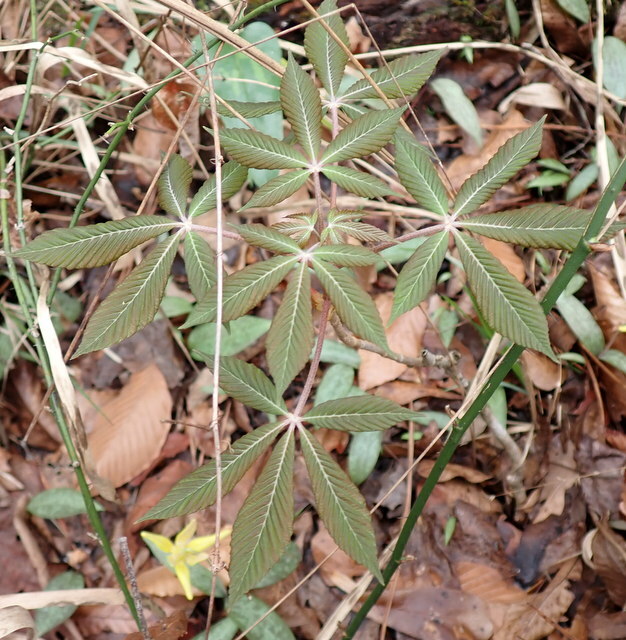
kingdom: Plantae
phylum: Tracheophyta
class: Magnoliopsida
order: Sapindales
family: Sapindaceae
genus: Aesculus
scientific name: Aesculus pavia
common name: Red buckeye
